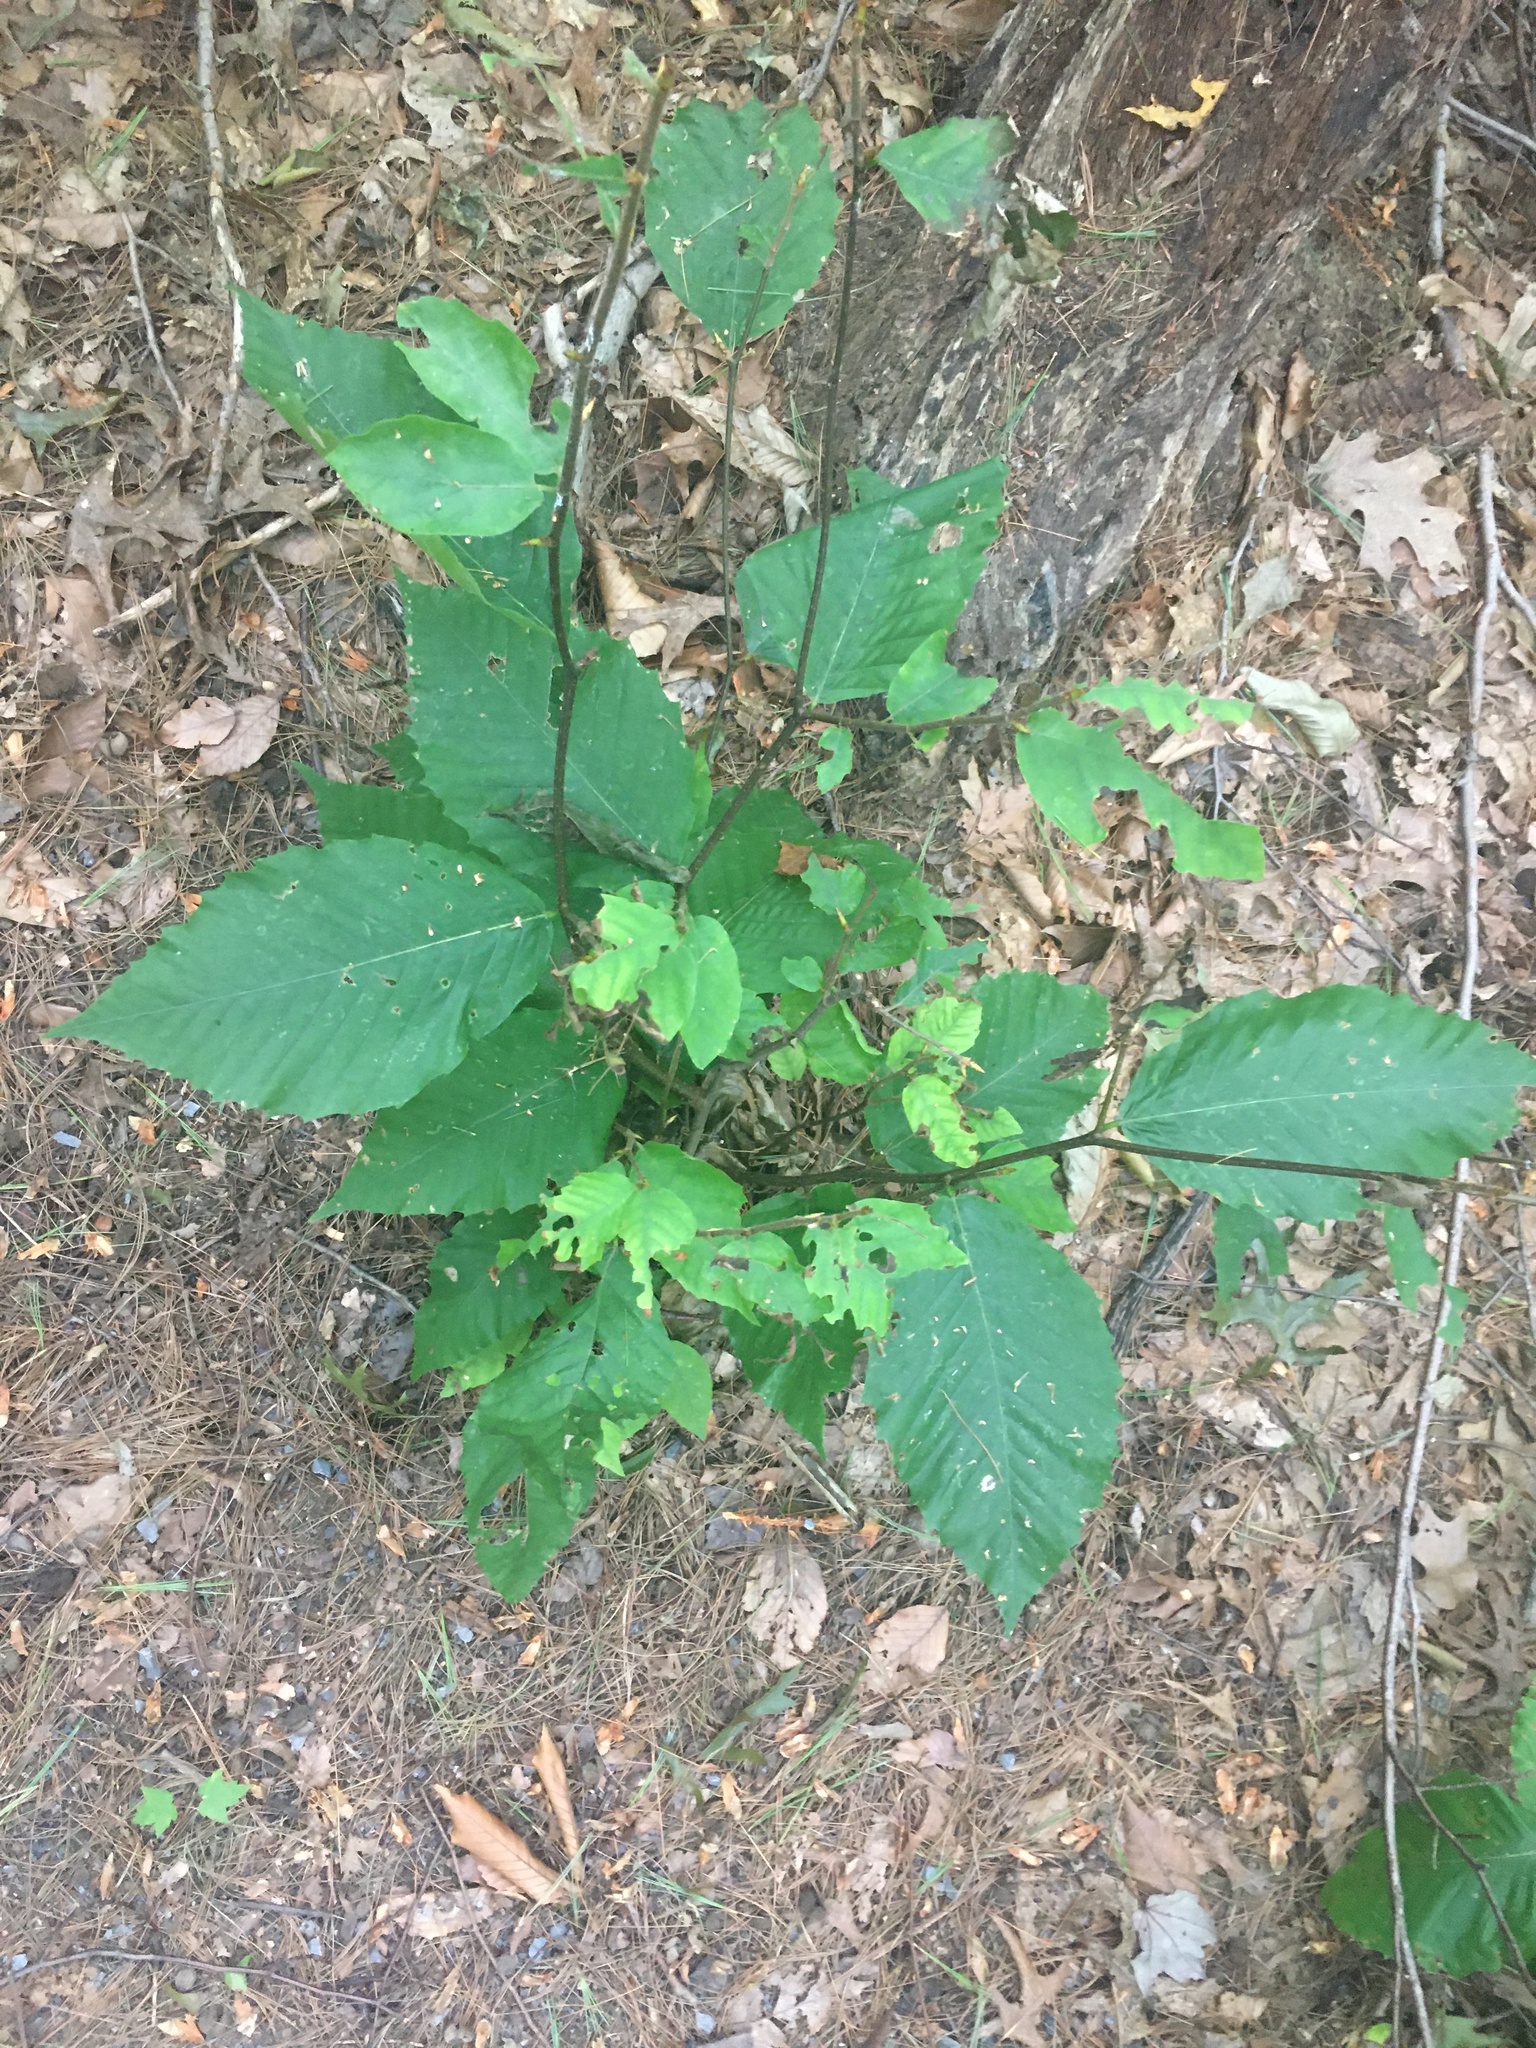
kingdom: Plantae
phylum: Tracheophyta
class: Magnoliopsida
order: Fagales
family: Fagaceae
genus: Fagus
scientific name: Fagus grandifolia
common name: American beech
